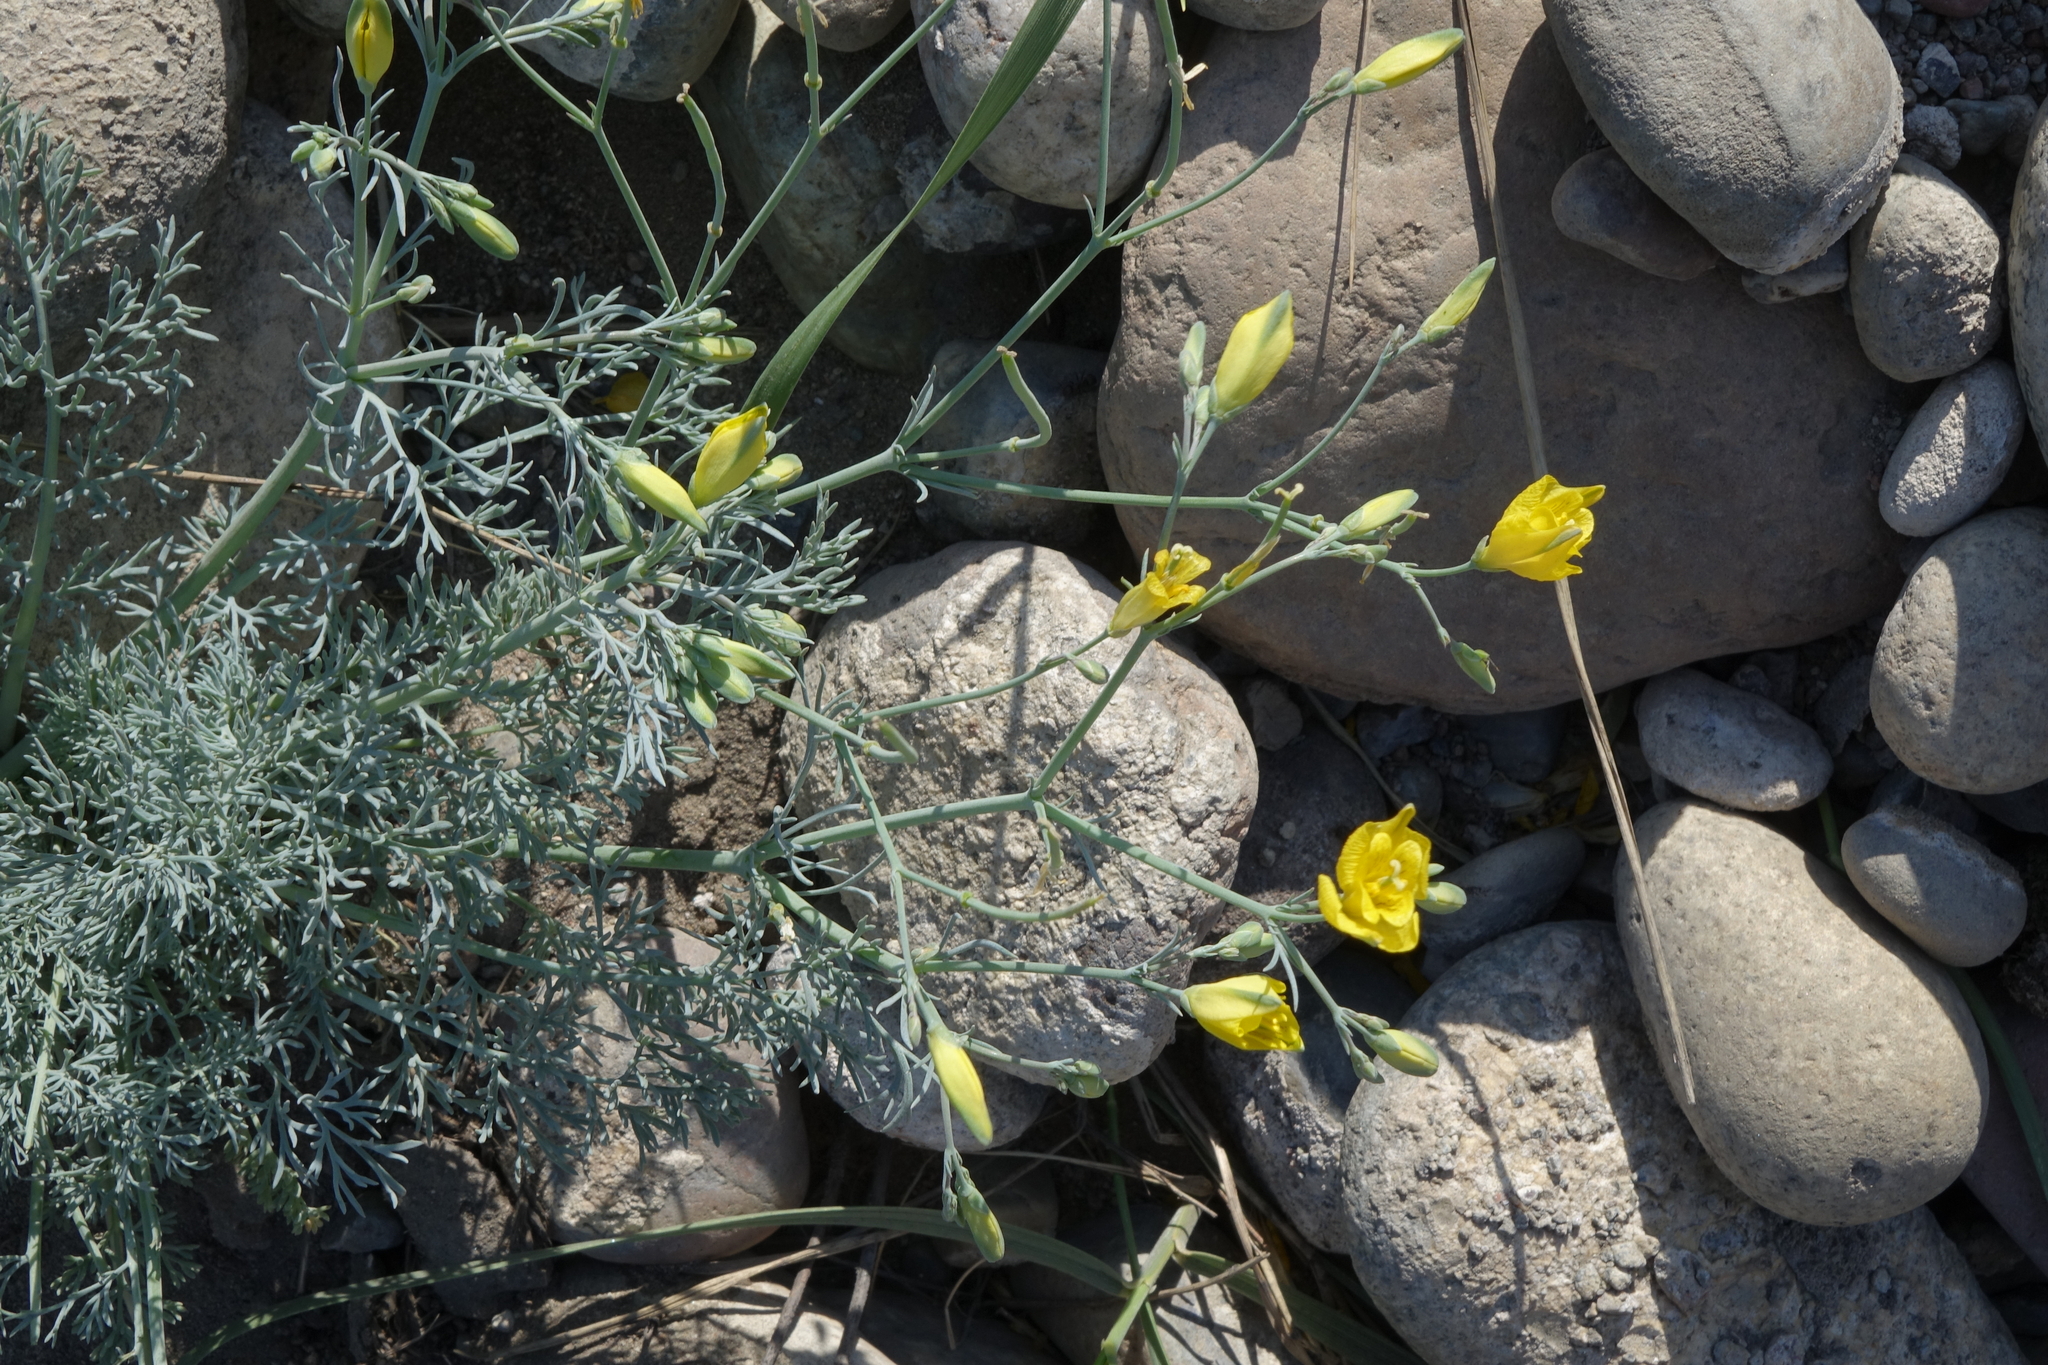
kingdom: Plantae
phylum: Tracheophyta
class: Magnoliopsida
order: Ranunculales
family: Papaveraceae
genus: Hypecoum
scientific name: Hypecoum erectum
